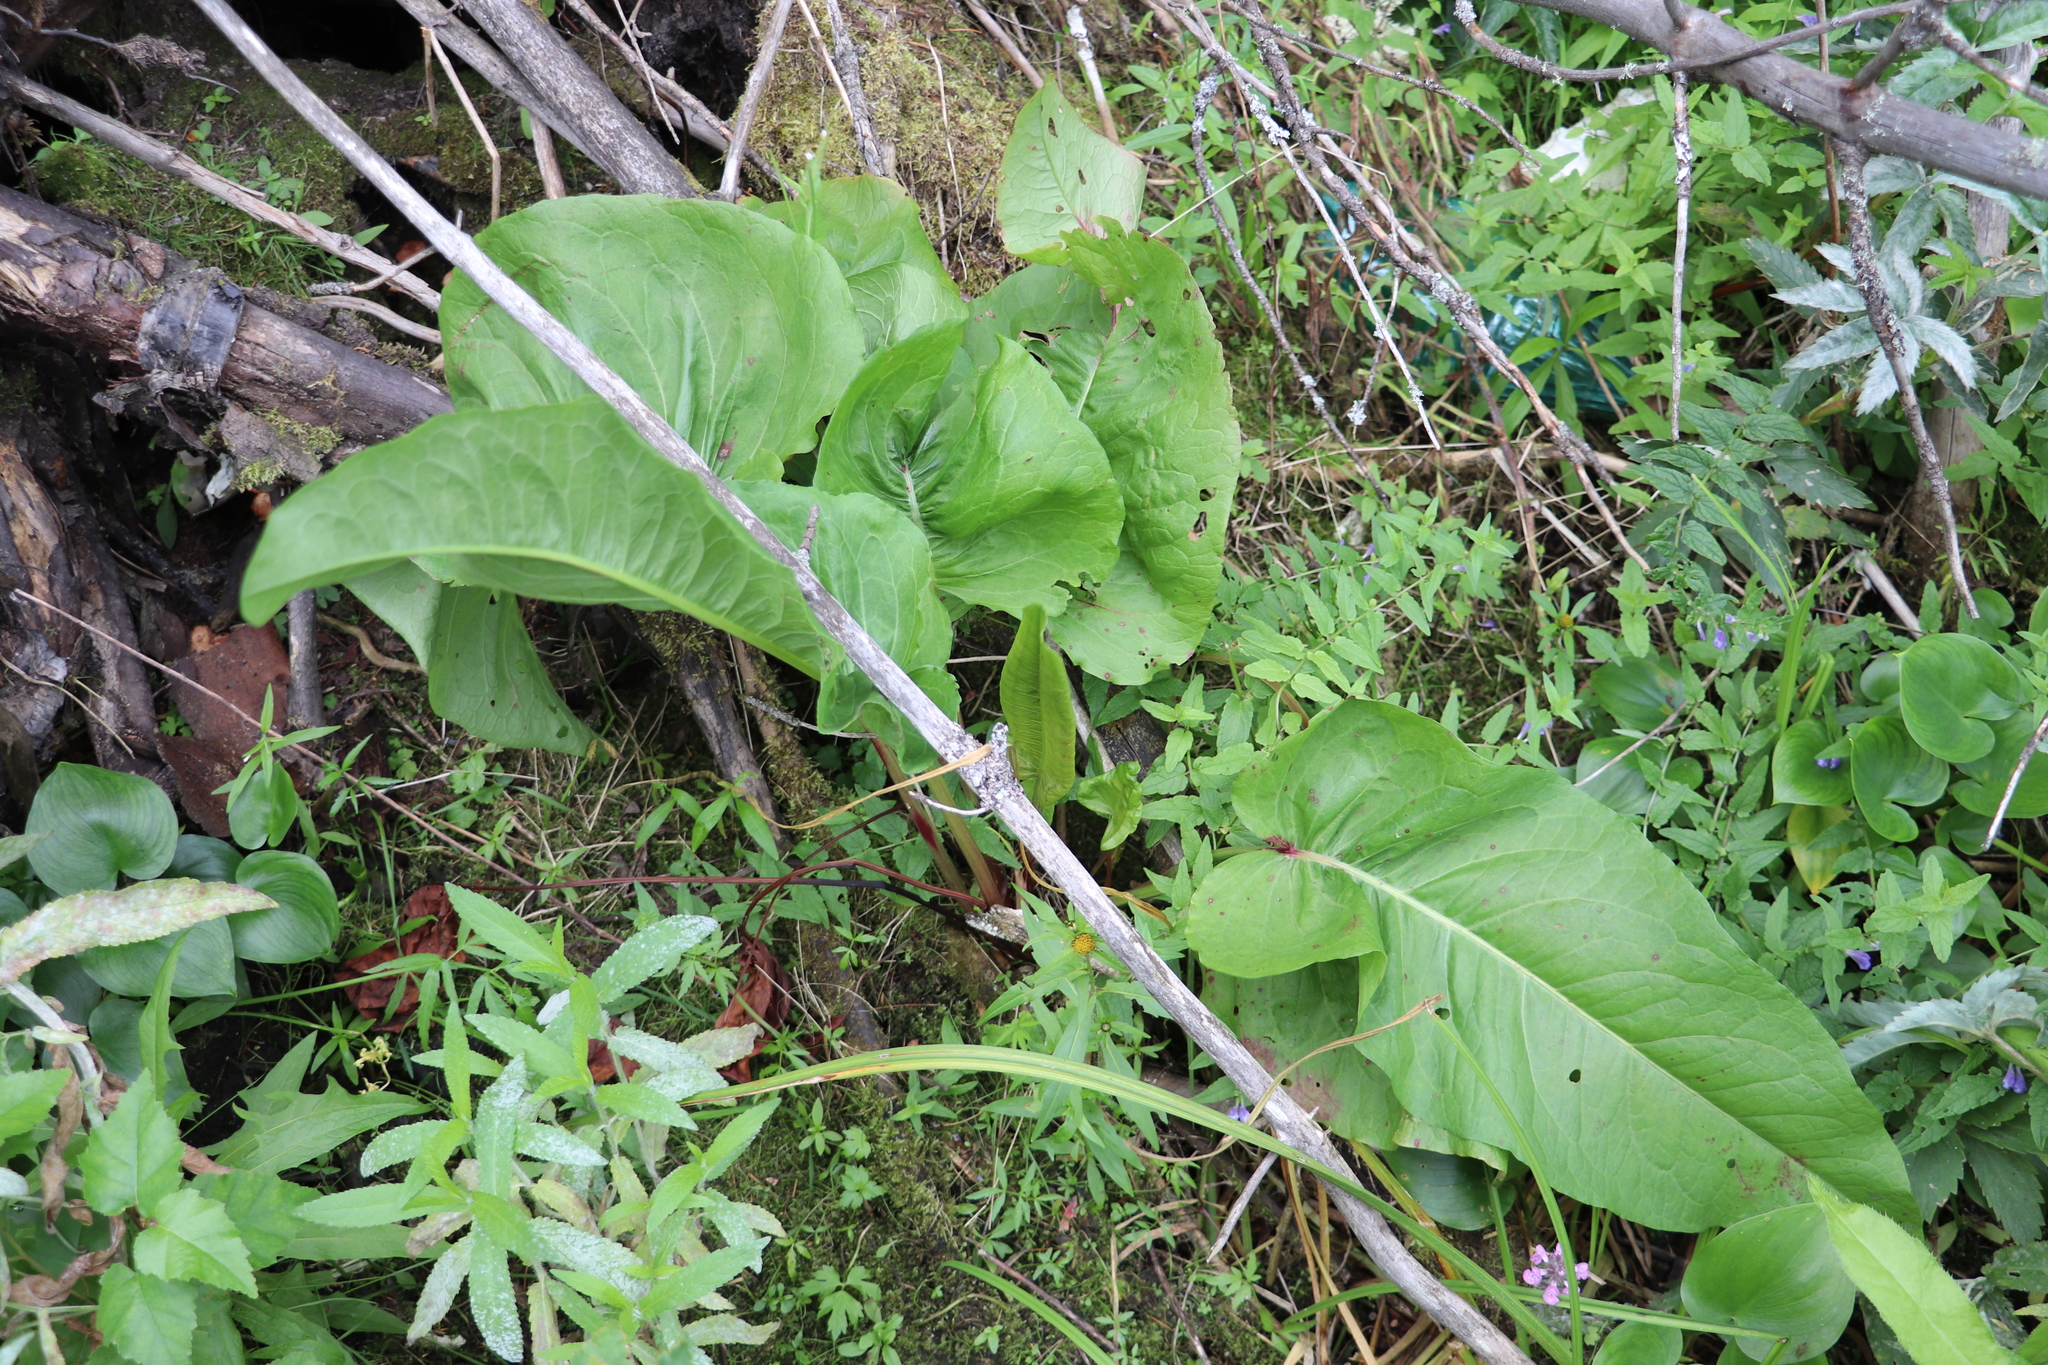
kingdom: Plantae
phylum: Tracheophyta
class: Magnoliopsida
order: Caryophyllales
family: Polygonaceae
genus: Rumex
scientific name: Rumex aquaticus
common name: Scottish dock
